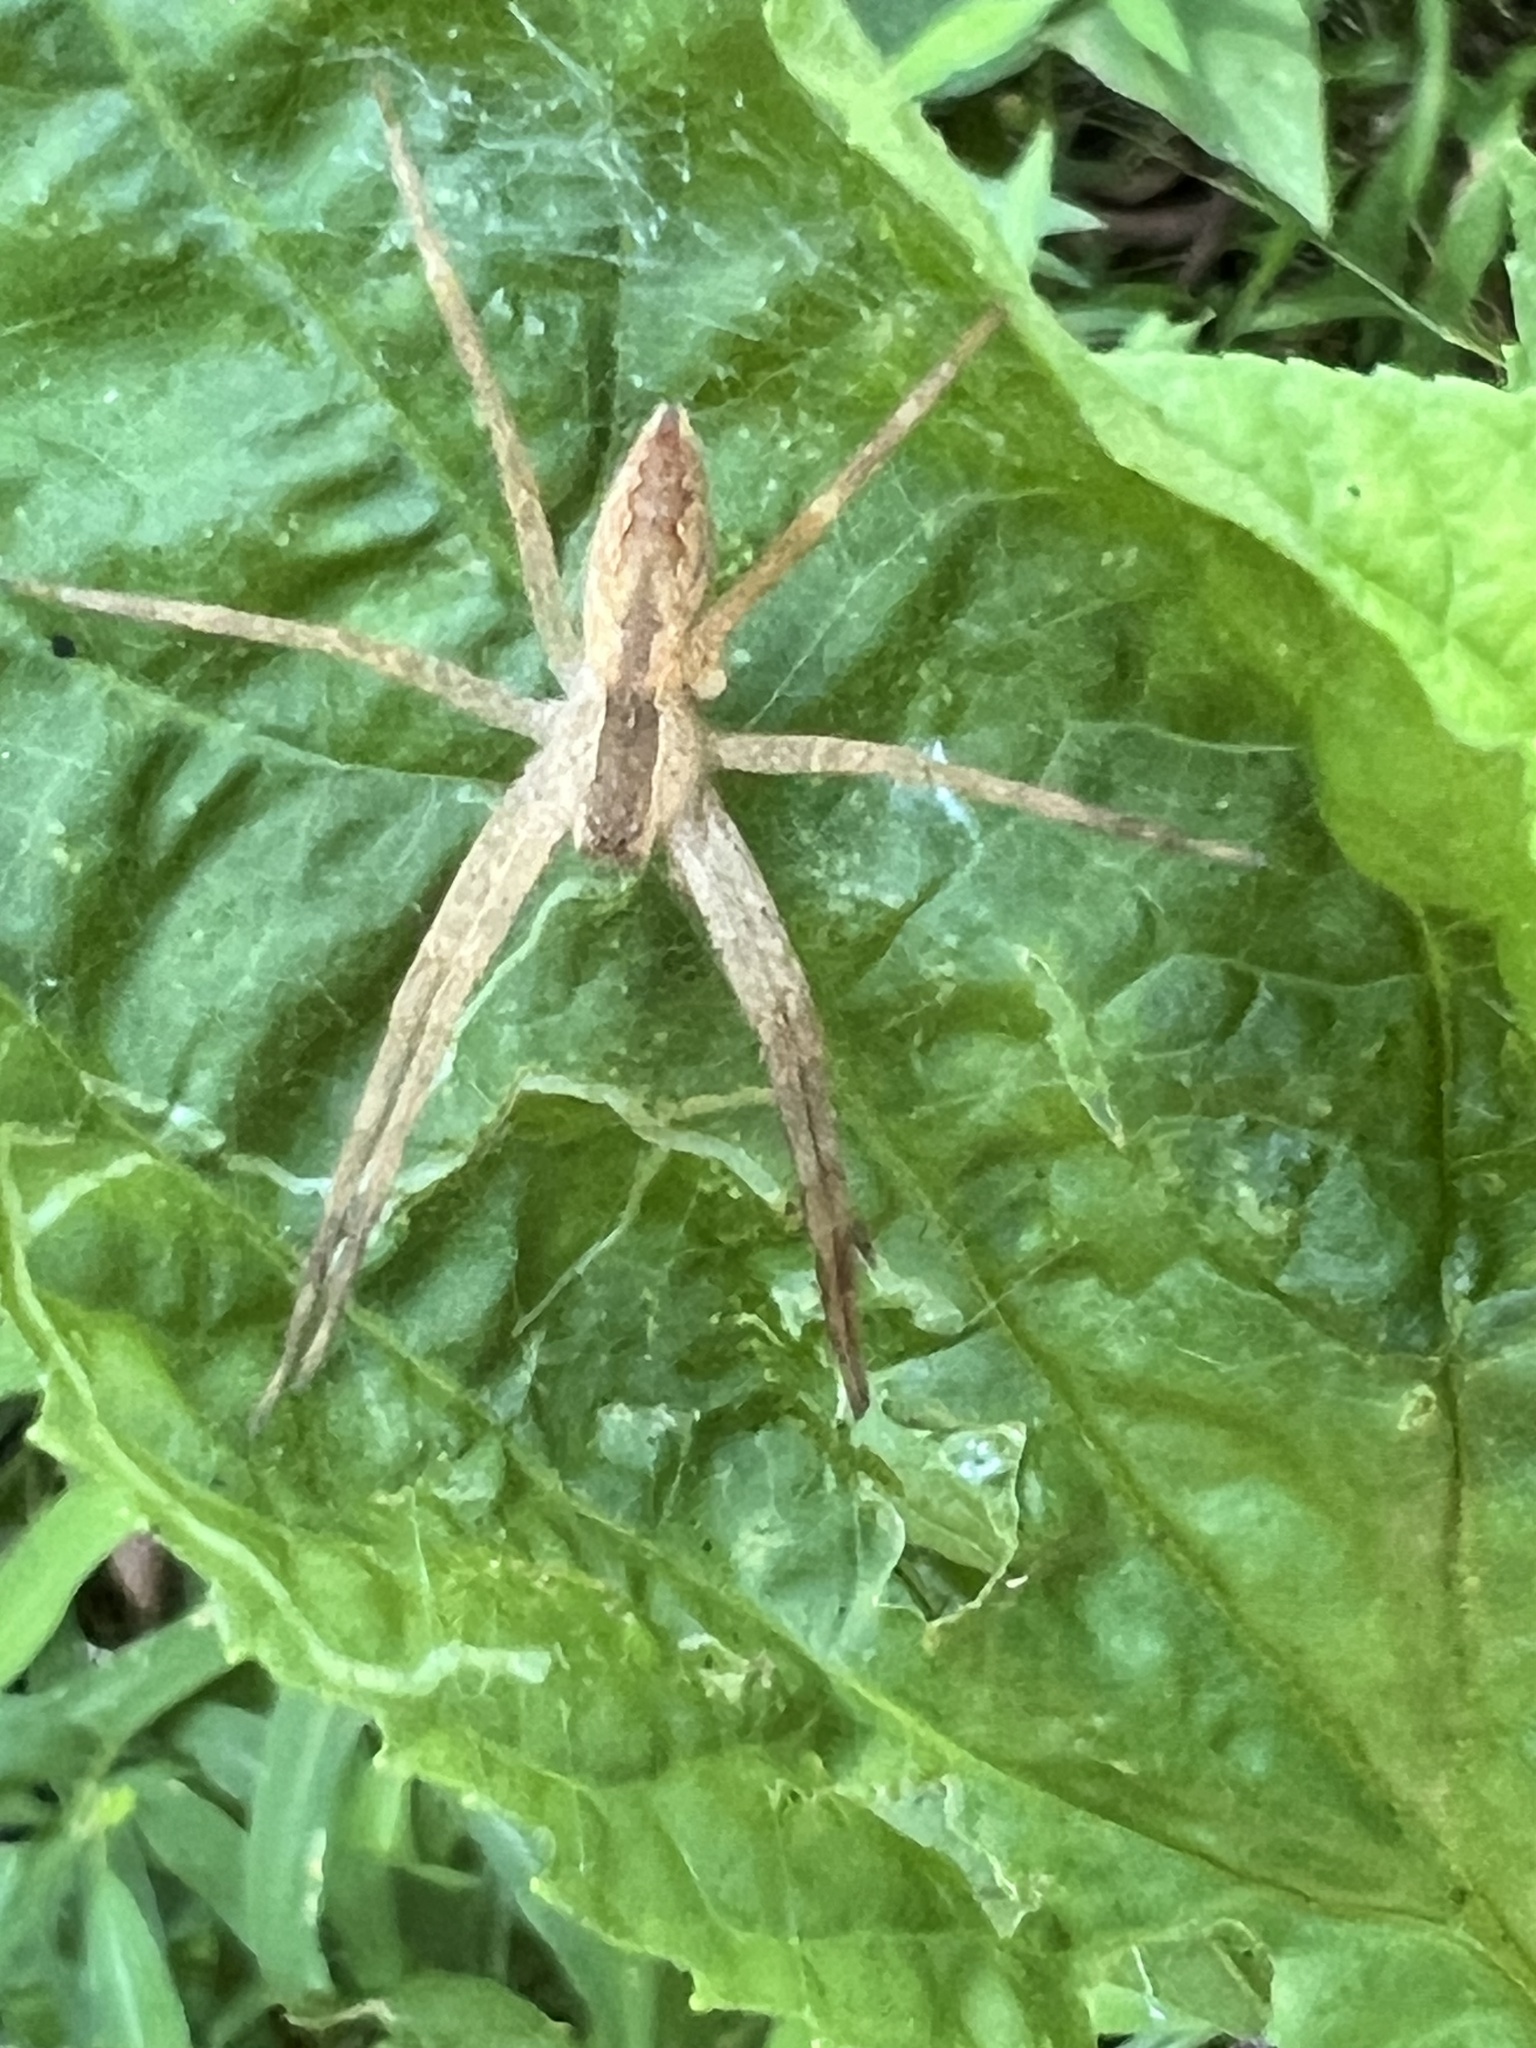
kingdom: Animalia
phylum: Arthropoda
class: Arachnida
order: Araneae
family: Pisauridae
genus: Pisaurina
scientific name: Pisaurina mira
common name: American nursery web spider
